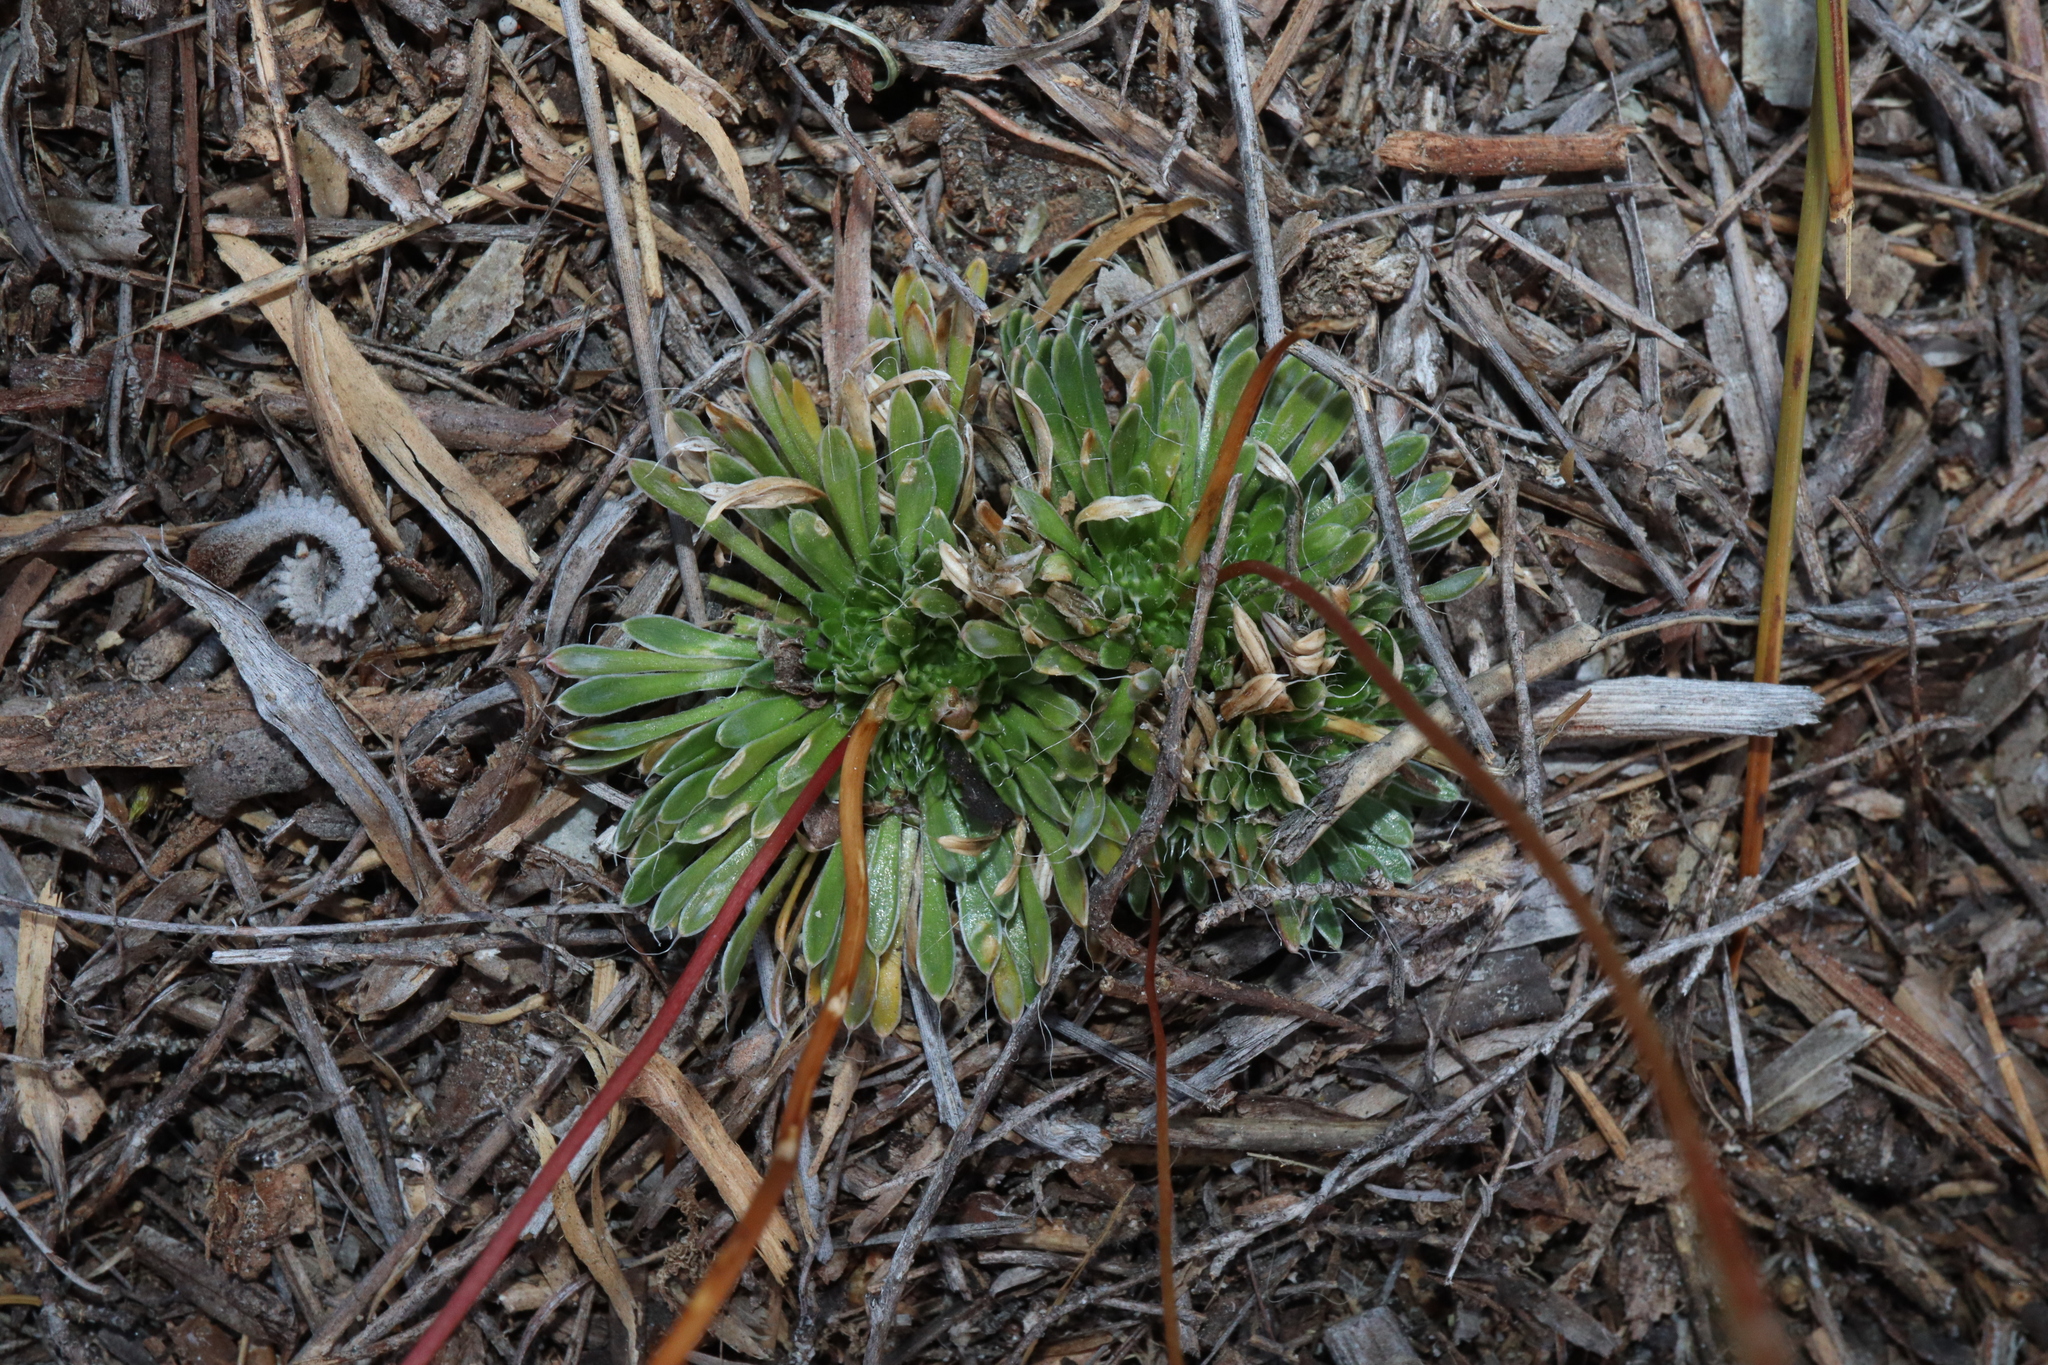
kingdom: Plantae
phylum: Tracheophyta
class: Magnoliopsida
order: Asterales
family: Stylidiaceae
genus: Stylidium
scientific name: Stylidium piliferum
